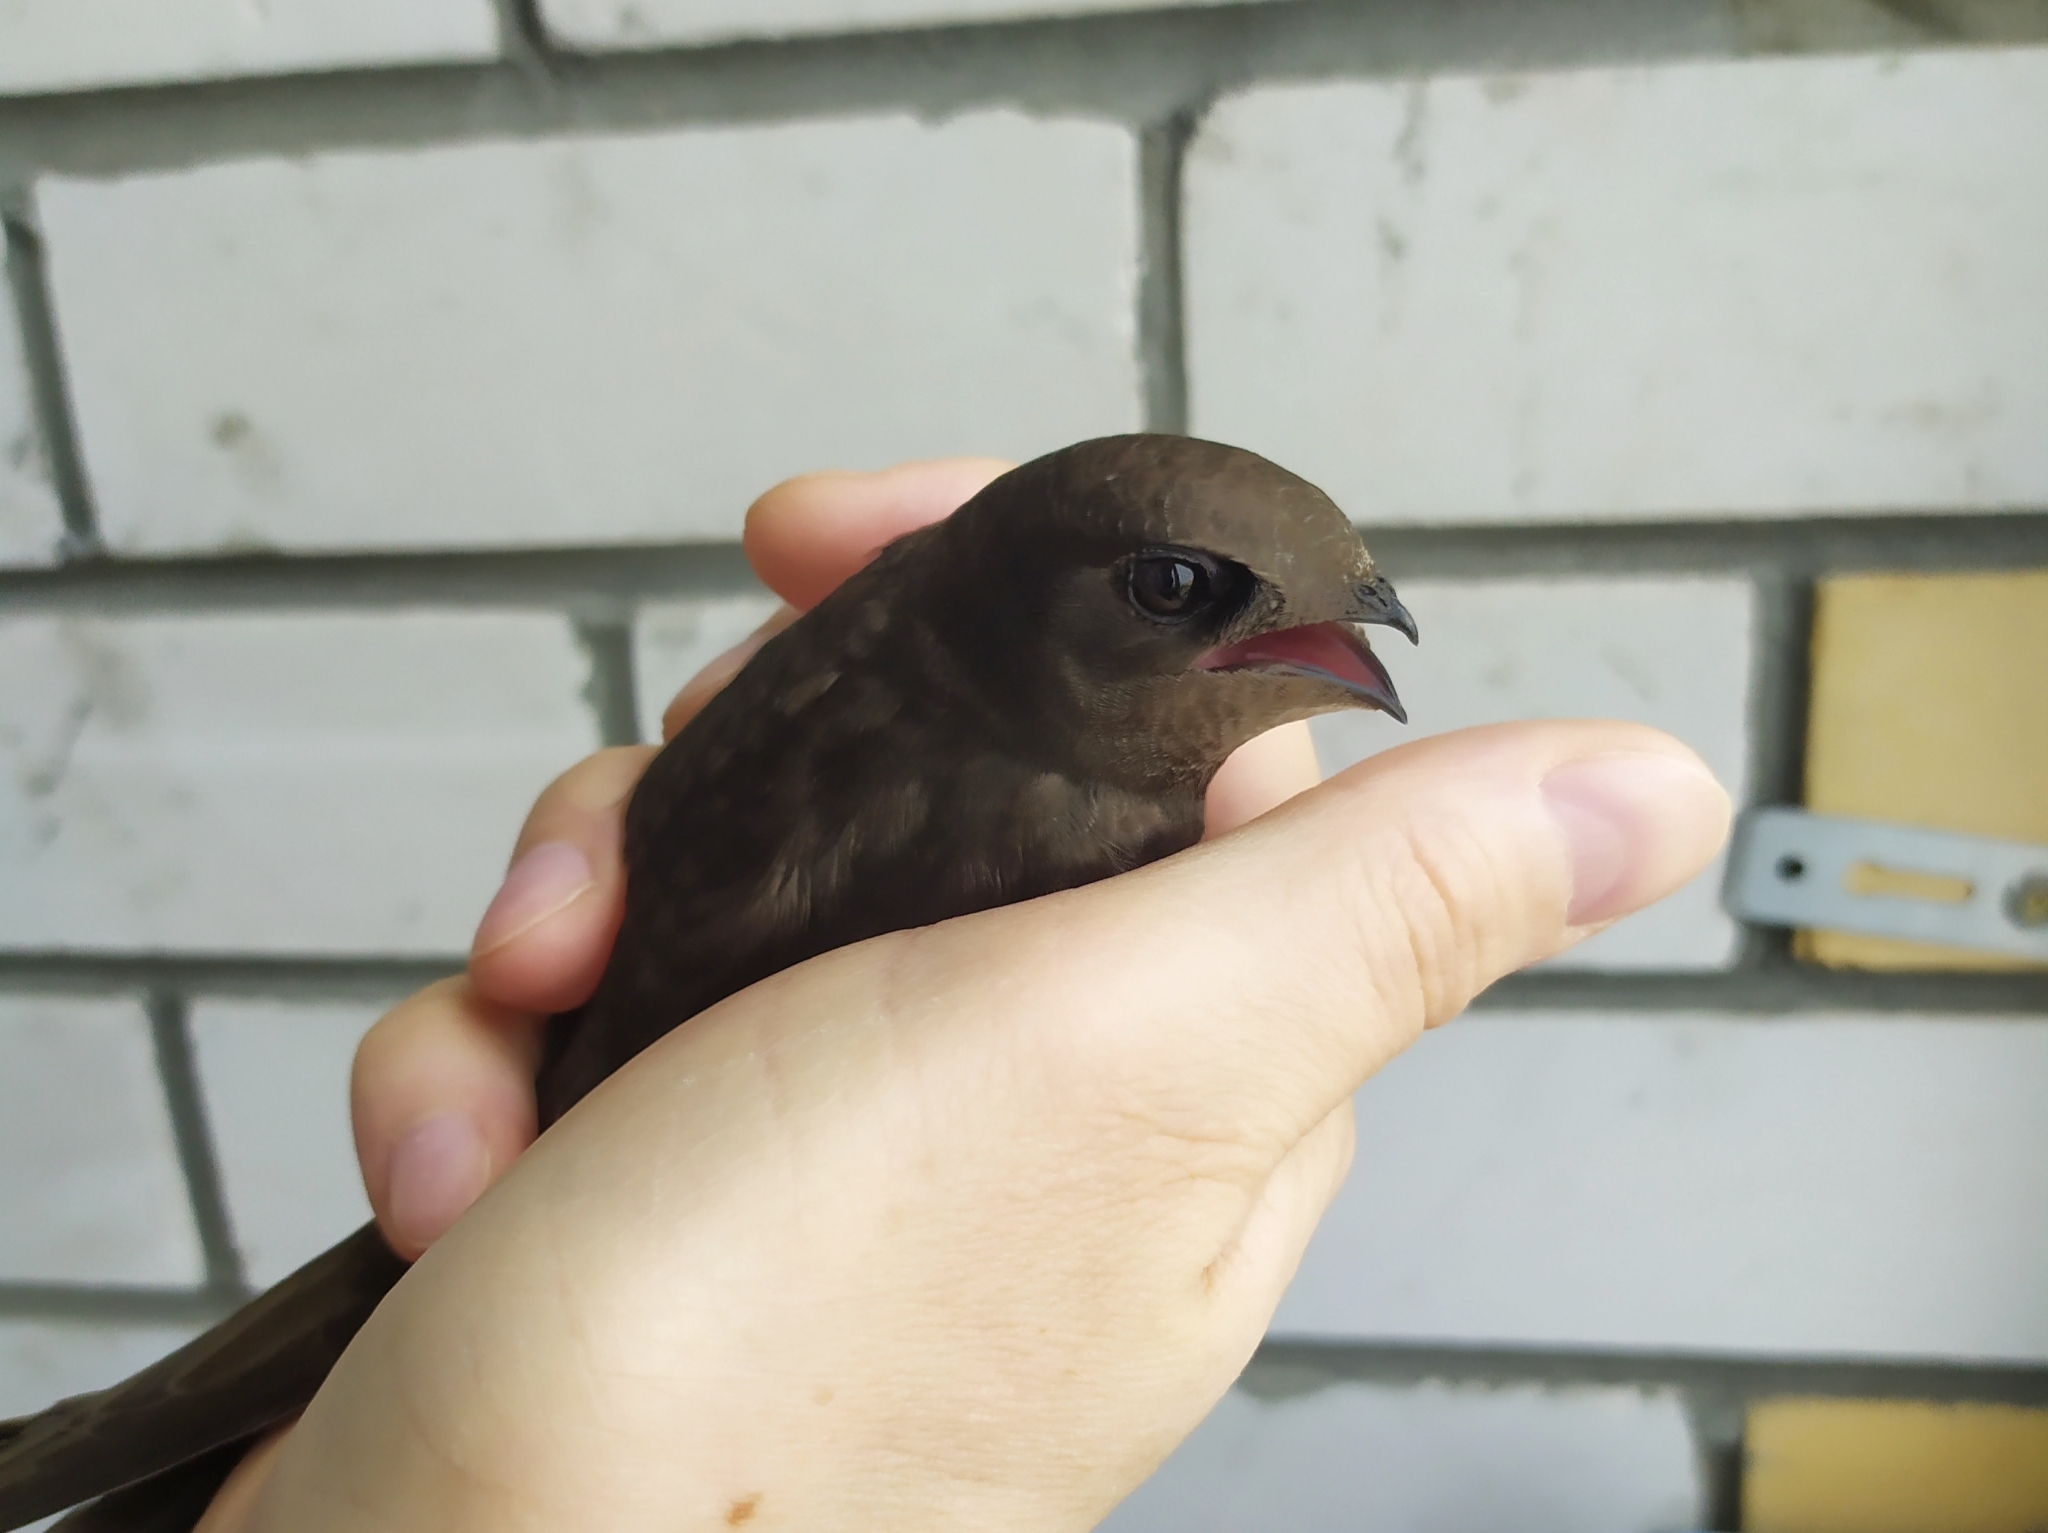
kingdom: Animalia
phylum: Chordata
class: Aves
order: Apodiformes
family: Apodidae
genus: Apus
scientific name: Apus apus
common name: Common swift
